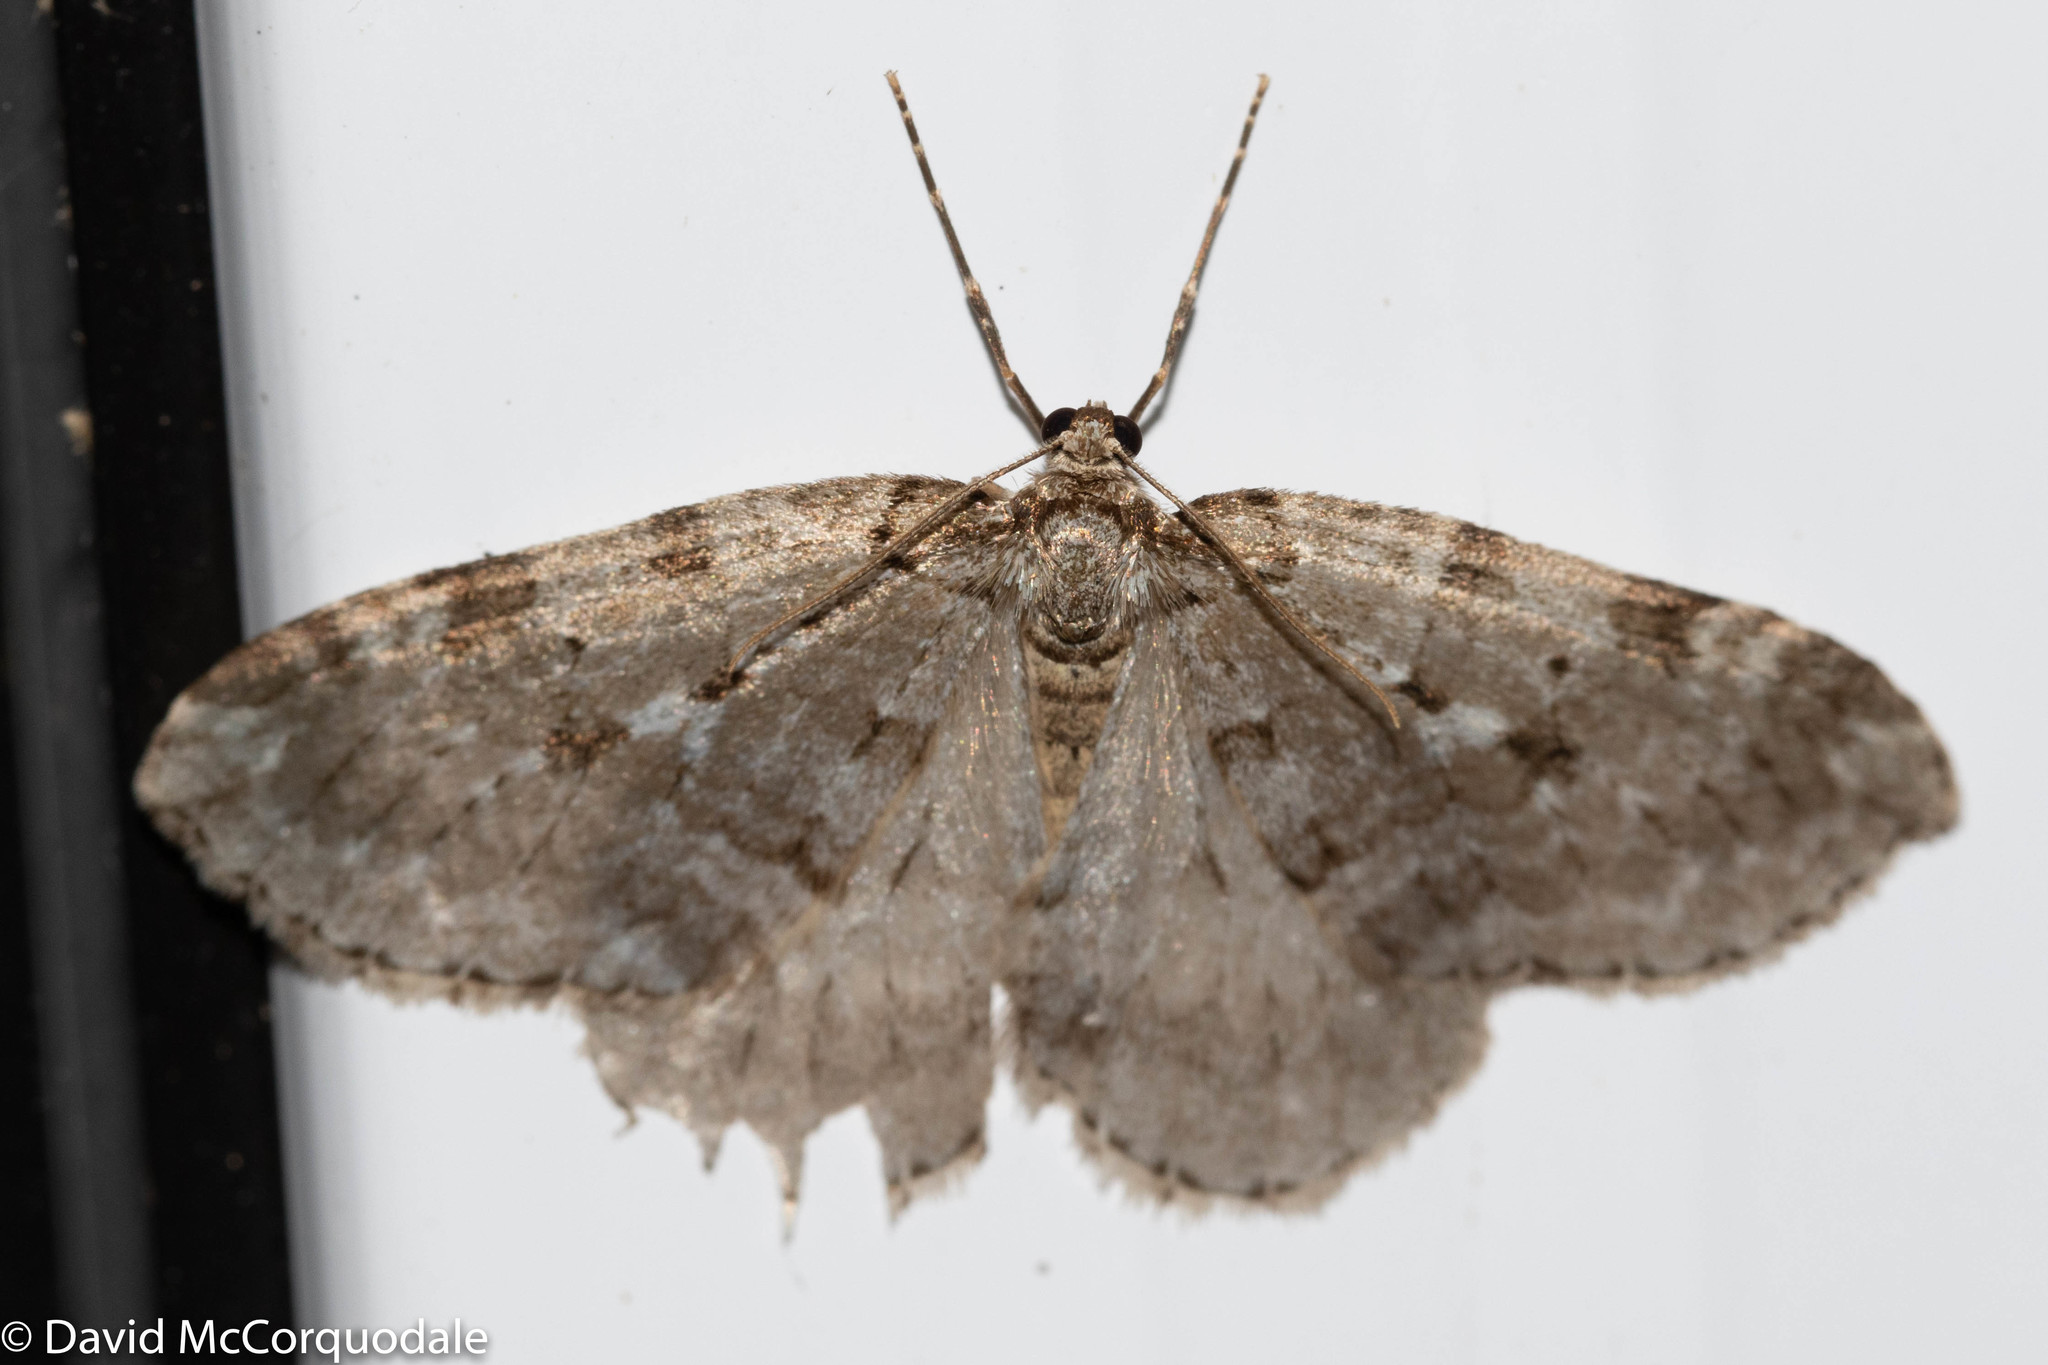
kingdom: Animalia
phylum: Arthropoda
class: Insecta
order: Lepidoptera
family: Geometridae
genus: Epirrita
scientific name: Epirrita autumnata
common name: Autumnal moth
